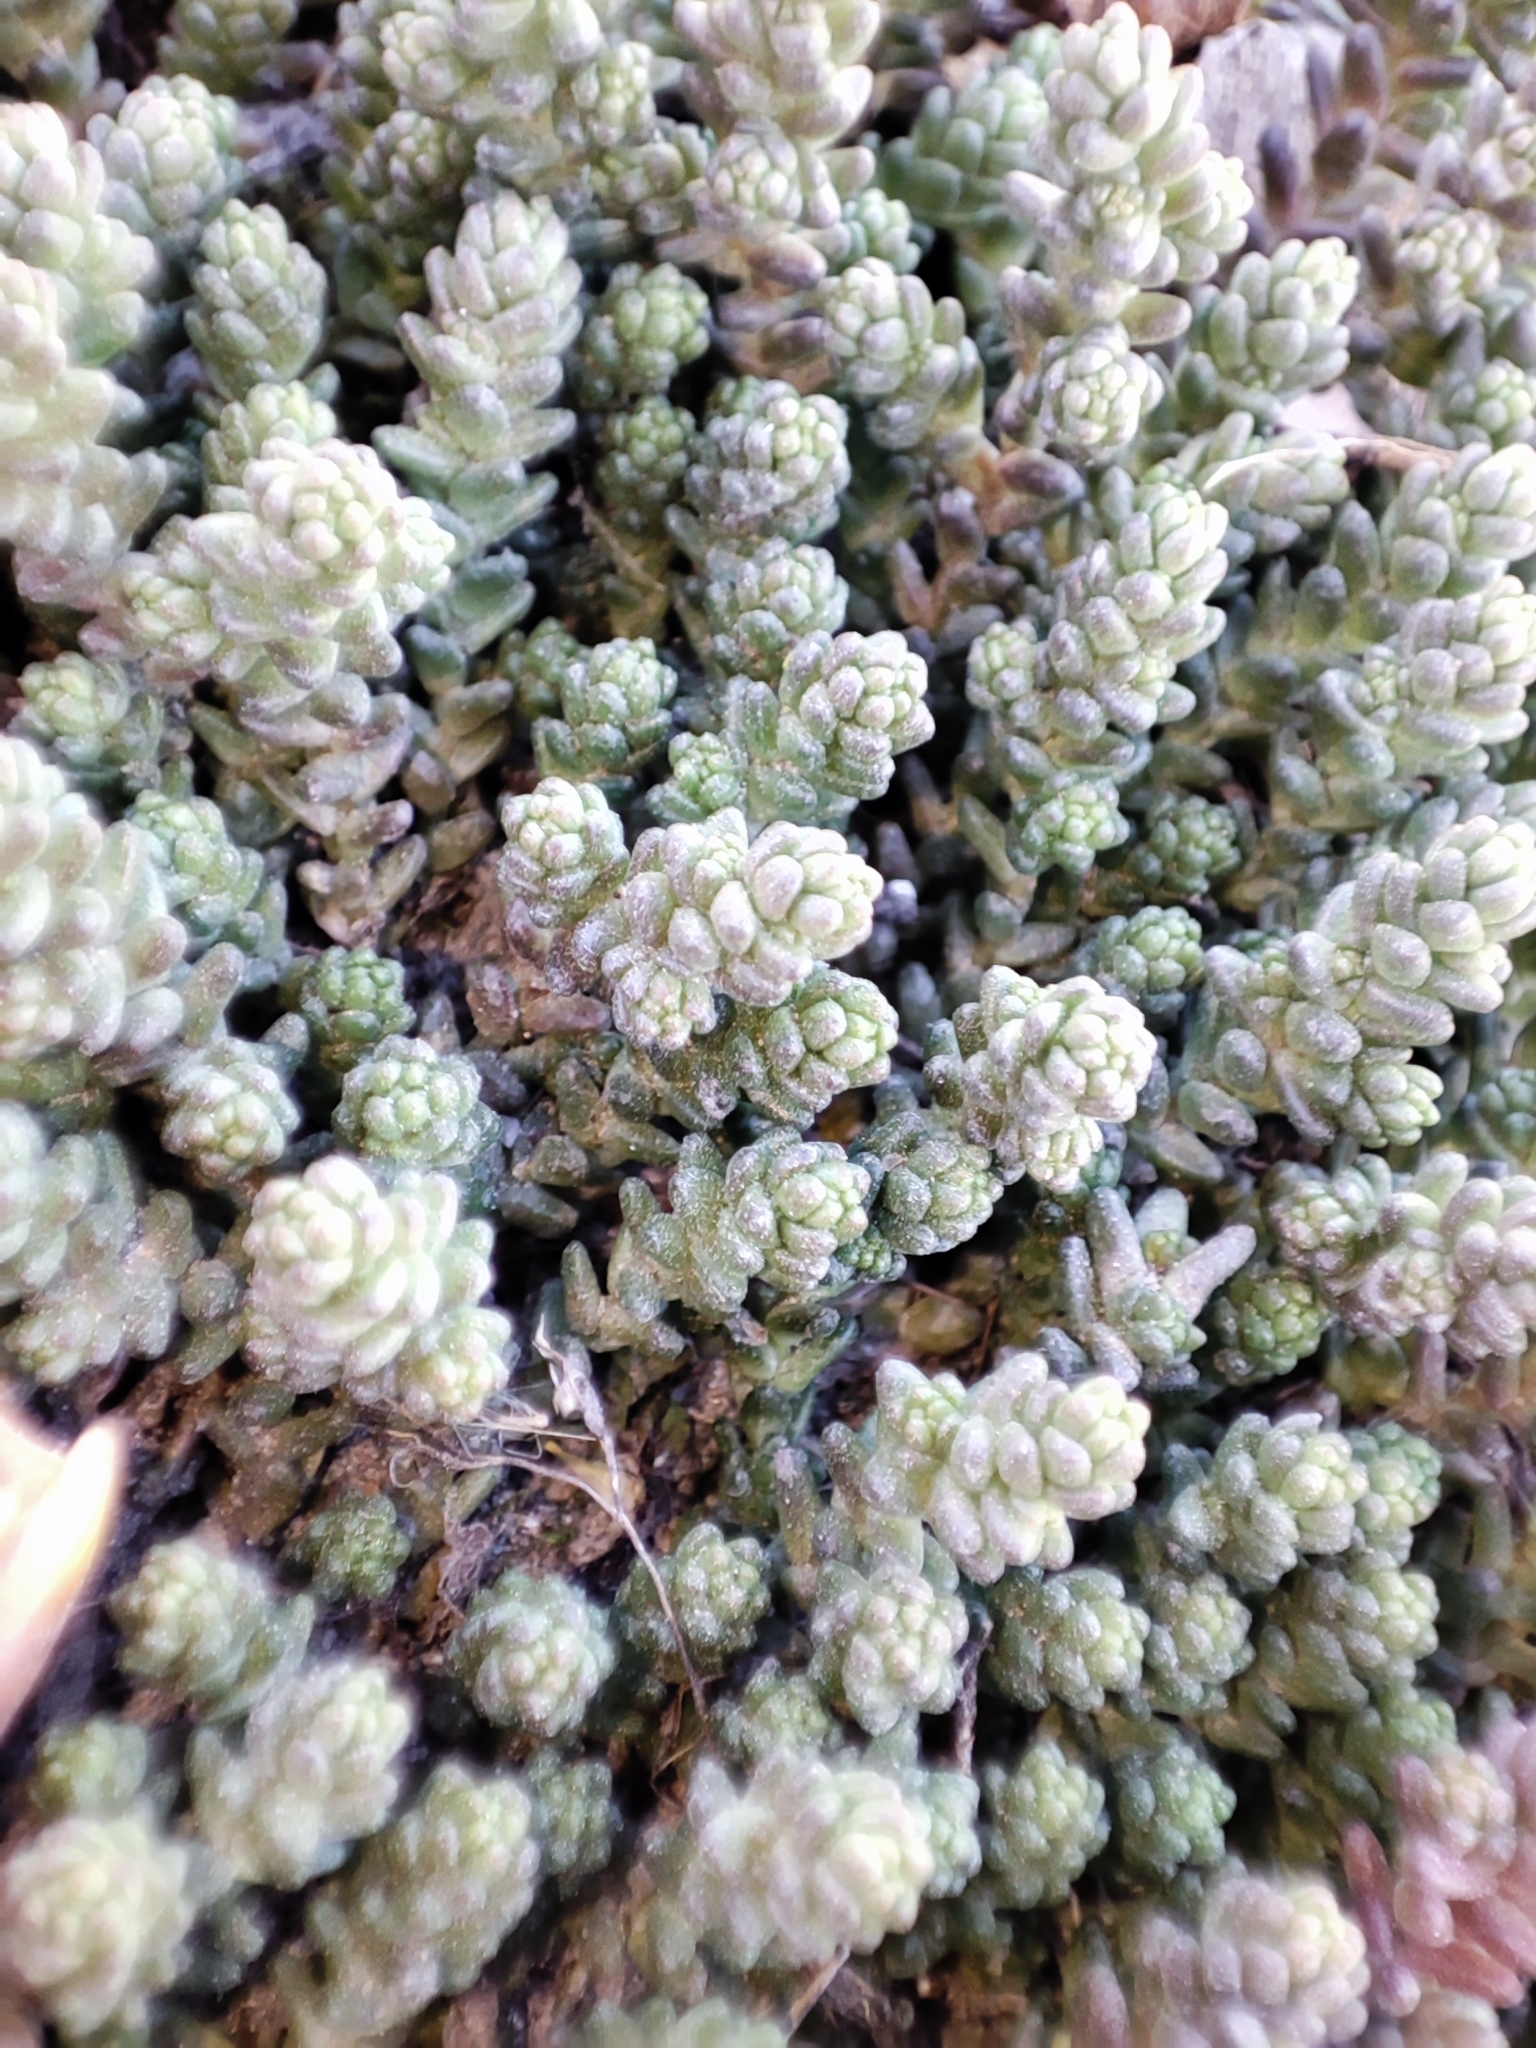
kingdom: Plantae
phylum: Tracheophyta
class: Magnoliopsida
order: Saxifragales
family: Crassulaceae
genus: Sedum
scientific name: Sedum acre
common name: Biting stonecrop
